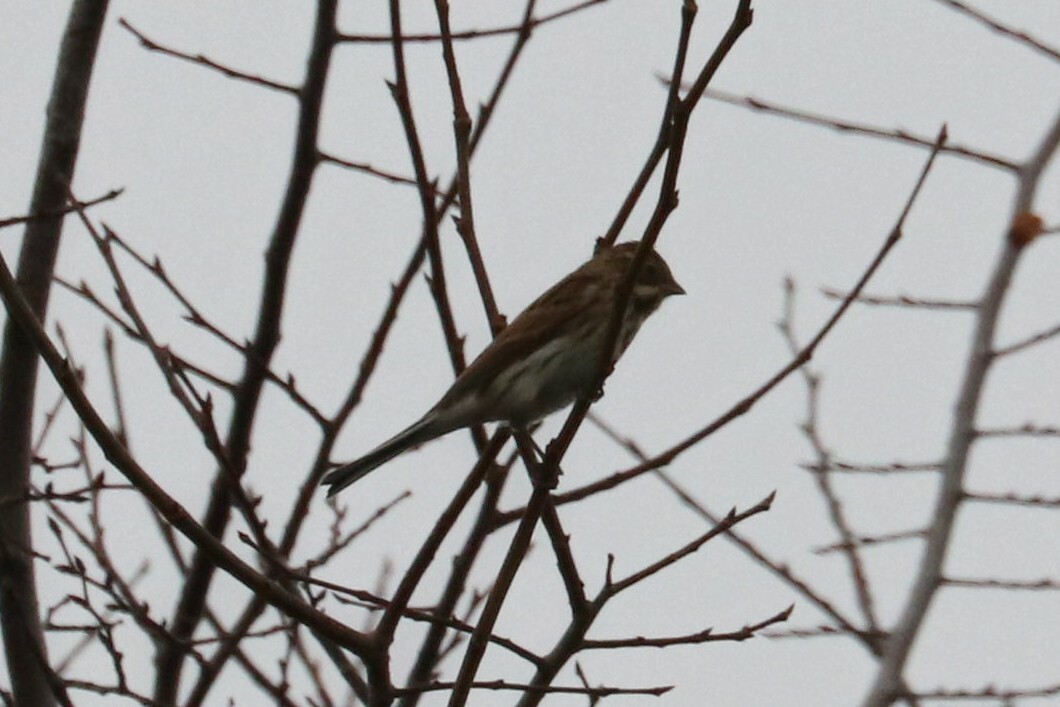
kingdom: Animalia
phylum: Chordata
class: Aves
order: Passeriformes
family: Emberizidae
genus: Emberiza
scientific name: Emberiza schoeniclus
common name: Reed bunting
